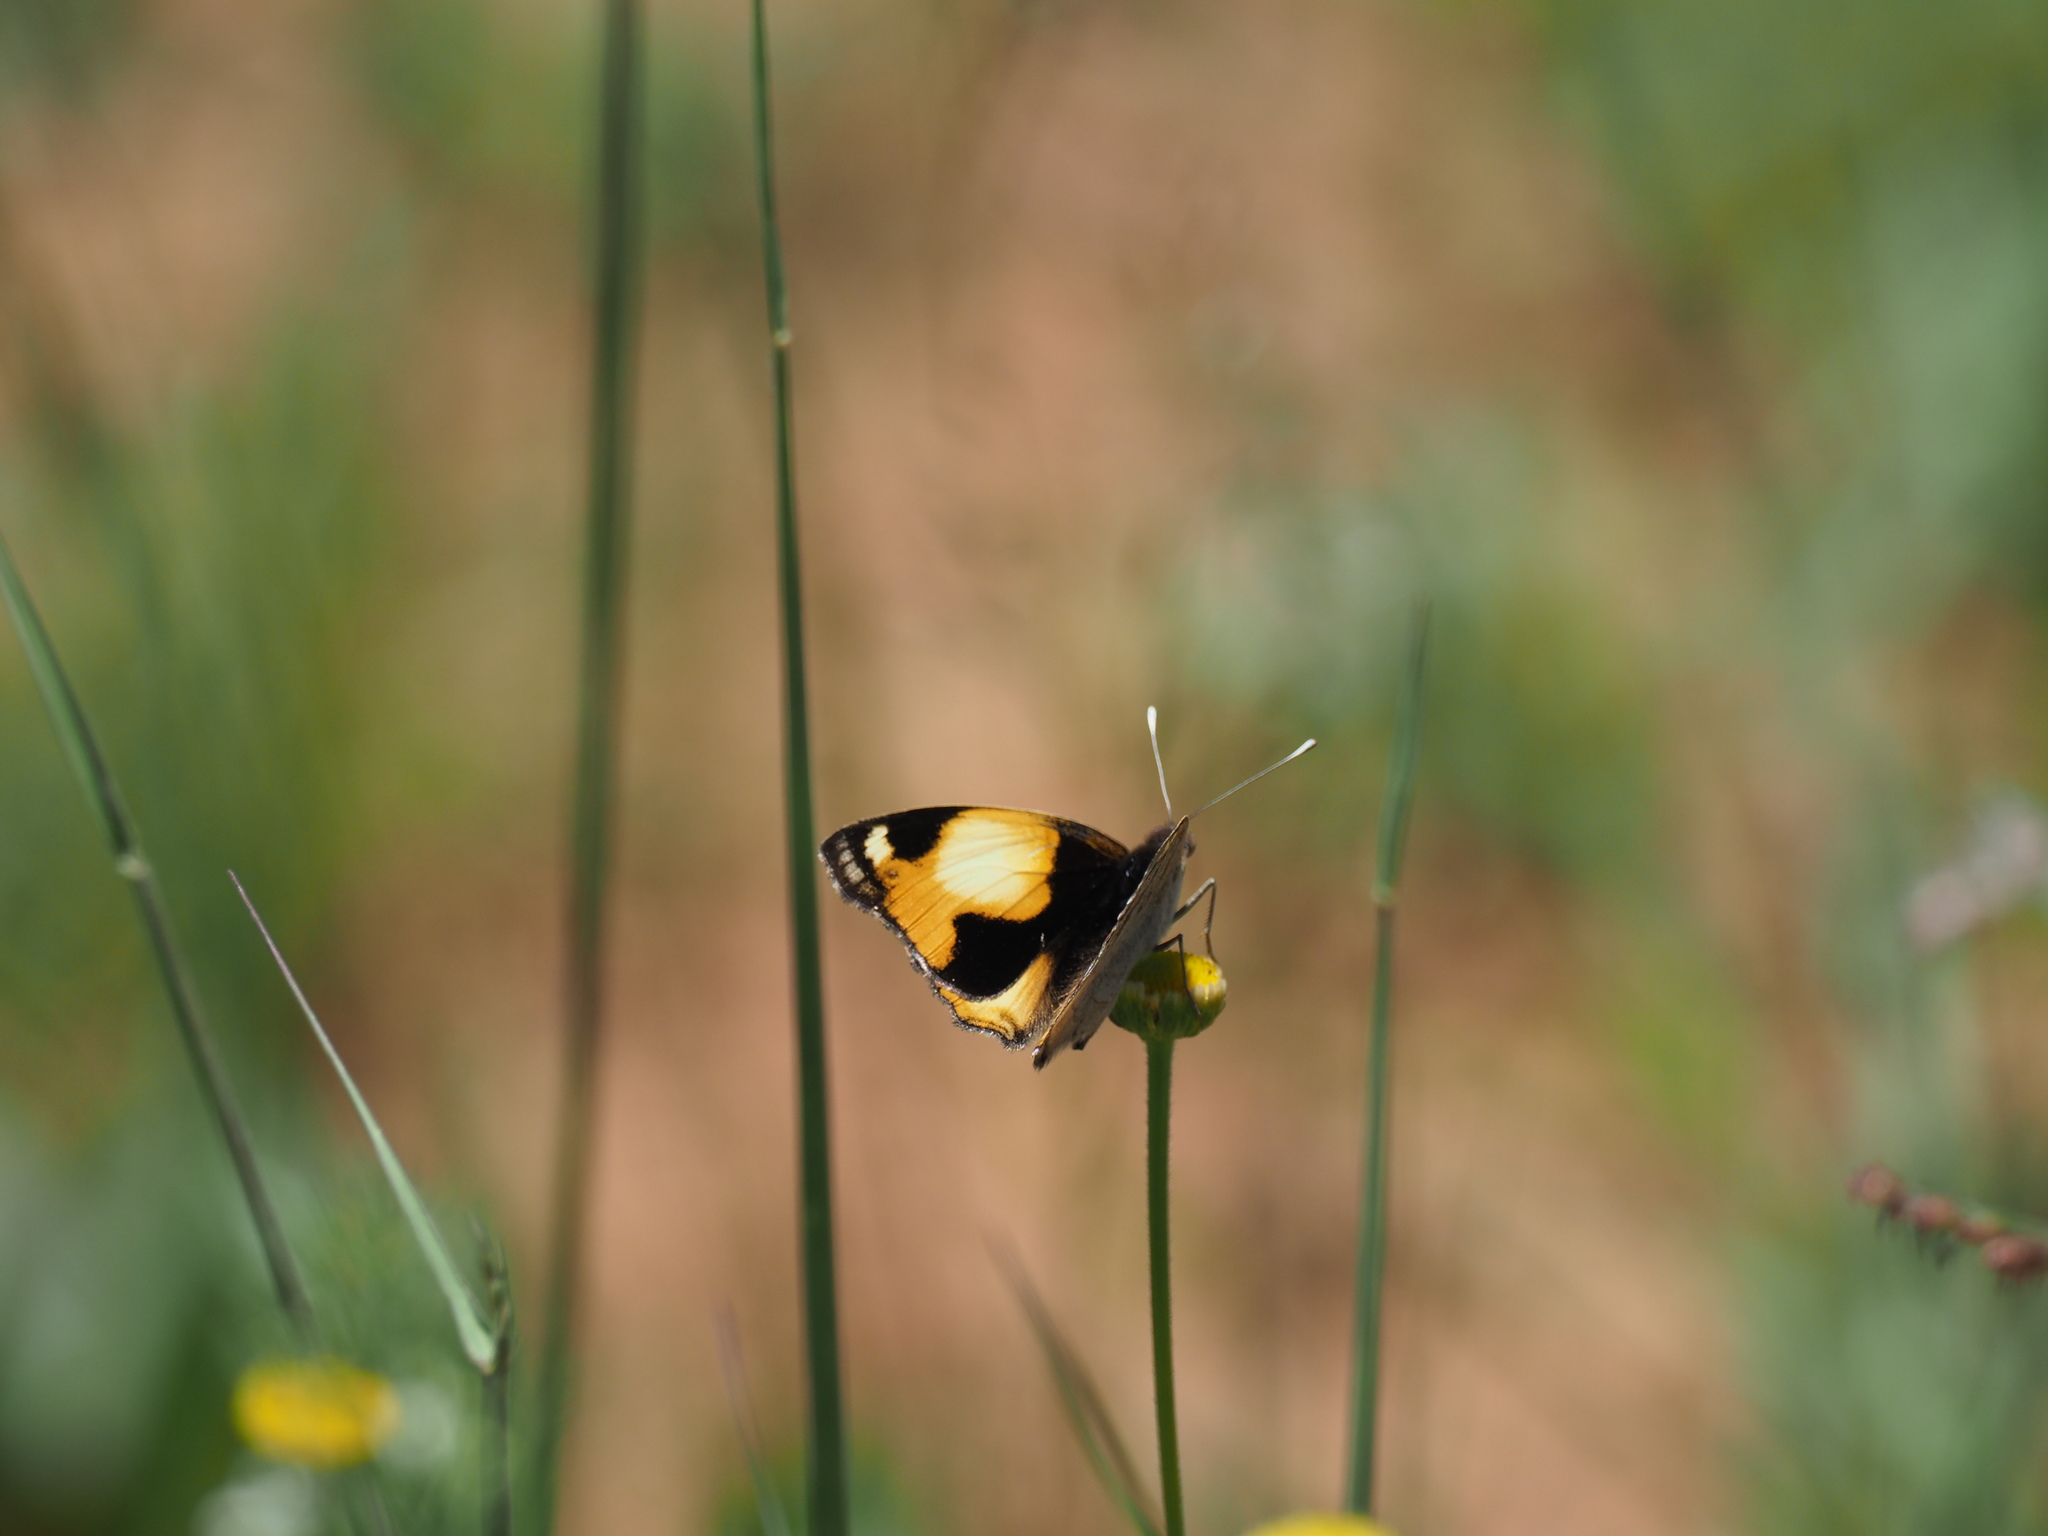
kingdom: Animalia
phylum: Arthropoda
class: Insecta
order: Lepidoptera
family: Nymphalidae
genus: Junonia
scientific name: Junonia hierta
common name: Yellow pansy
